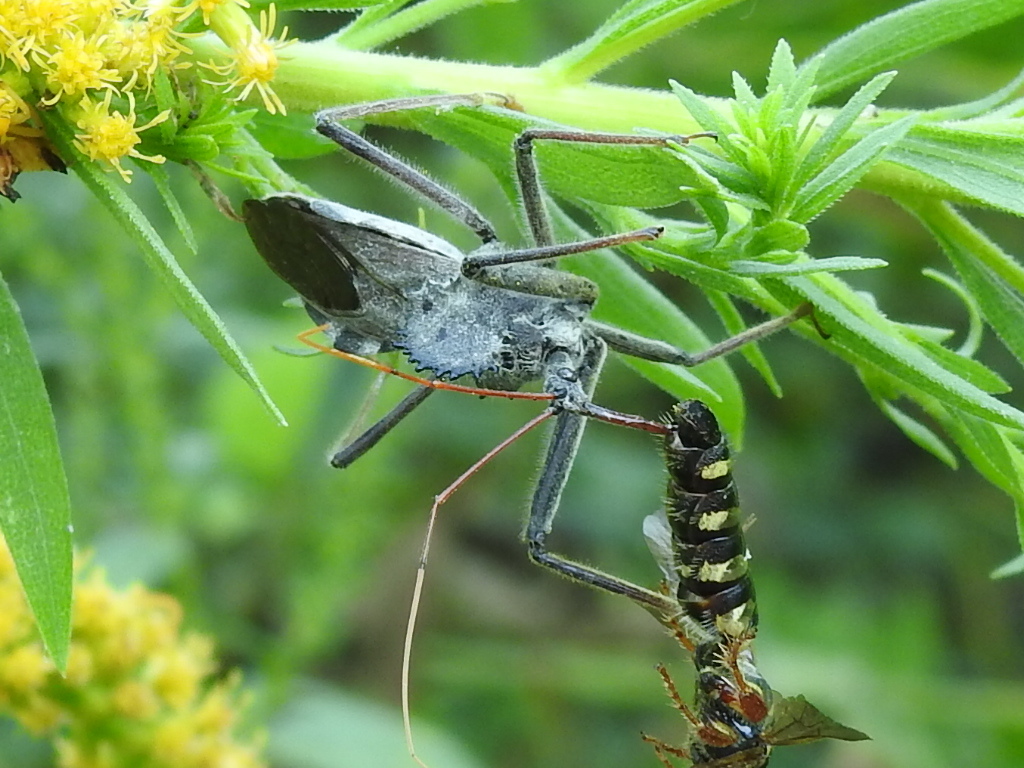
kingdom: Animalia
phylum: Arthropoda
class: Insecta
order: Hemiptera
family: Reduviidae
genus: Arilus
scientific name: Arilus cristatus
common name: North american wheel bug
